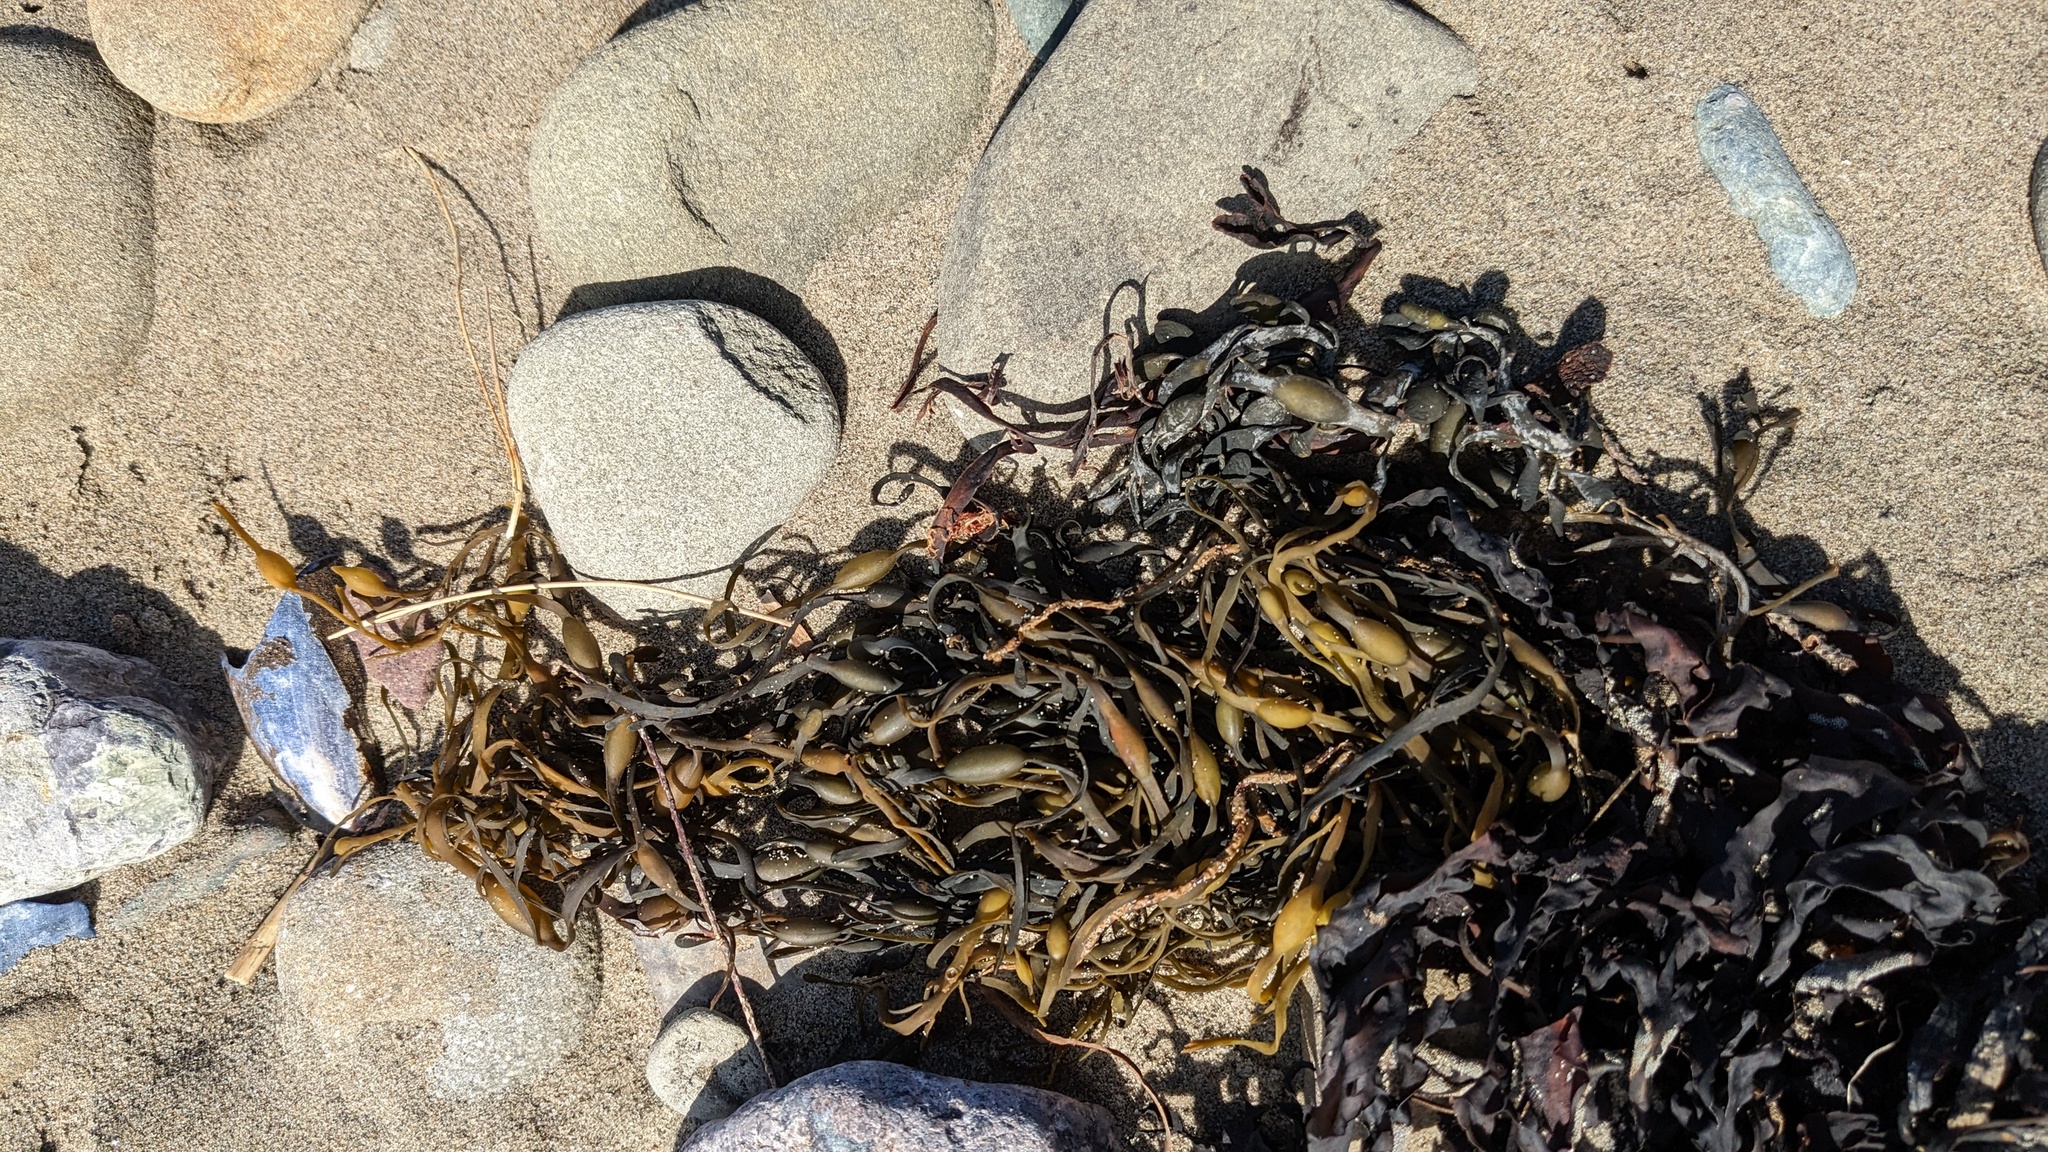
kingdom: Chromista
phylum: Ochrophyta
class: Phaeophyceae
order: Fucales
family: Fucaceae
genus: Ascophyllum
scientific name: Ascophyllum nodosum
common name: Knotted wrack
